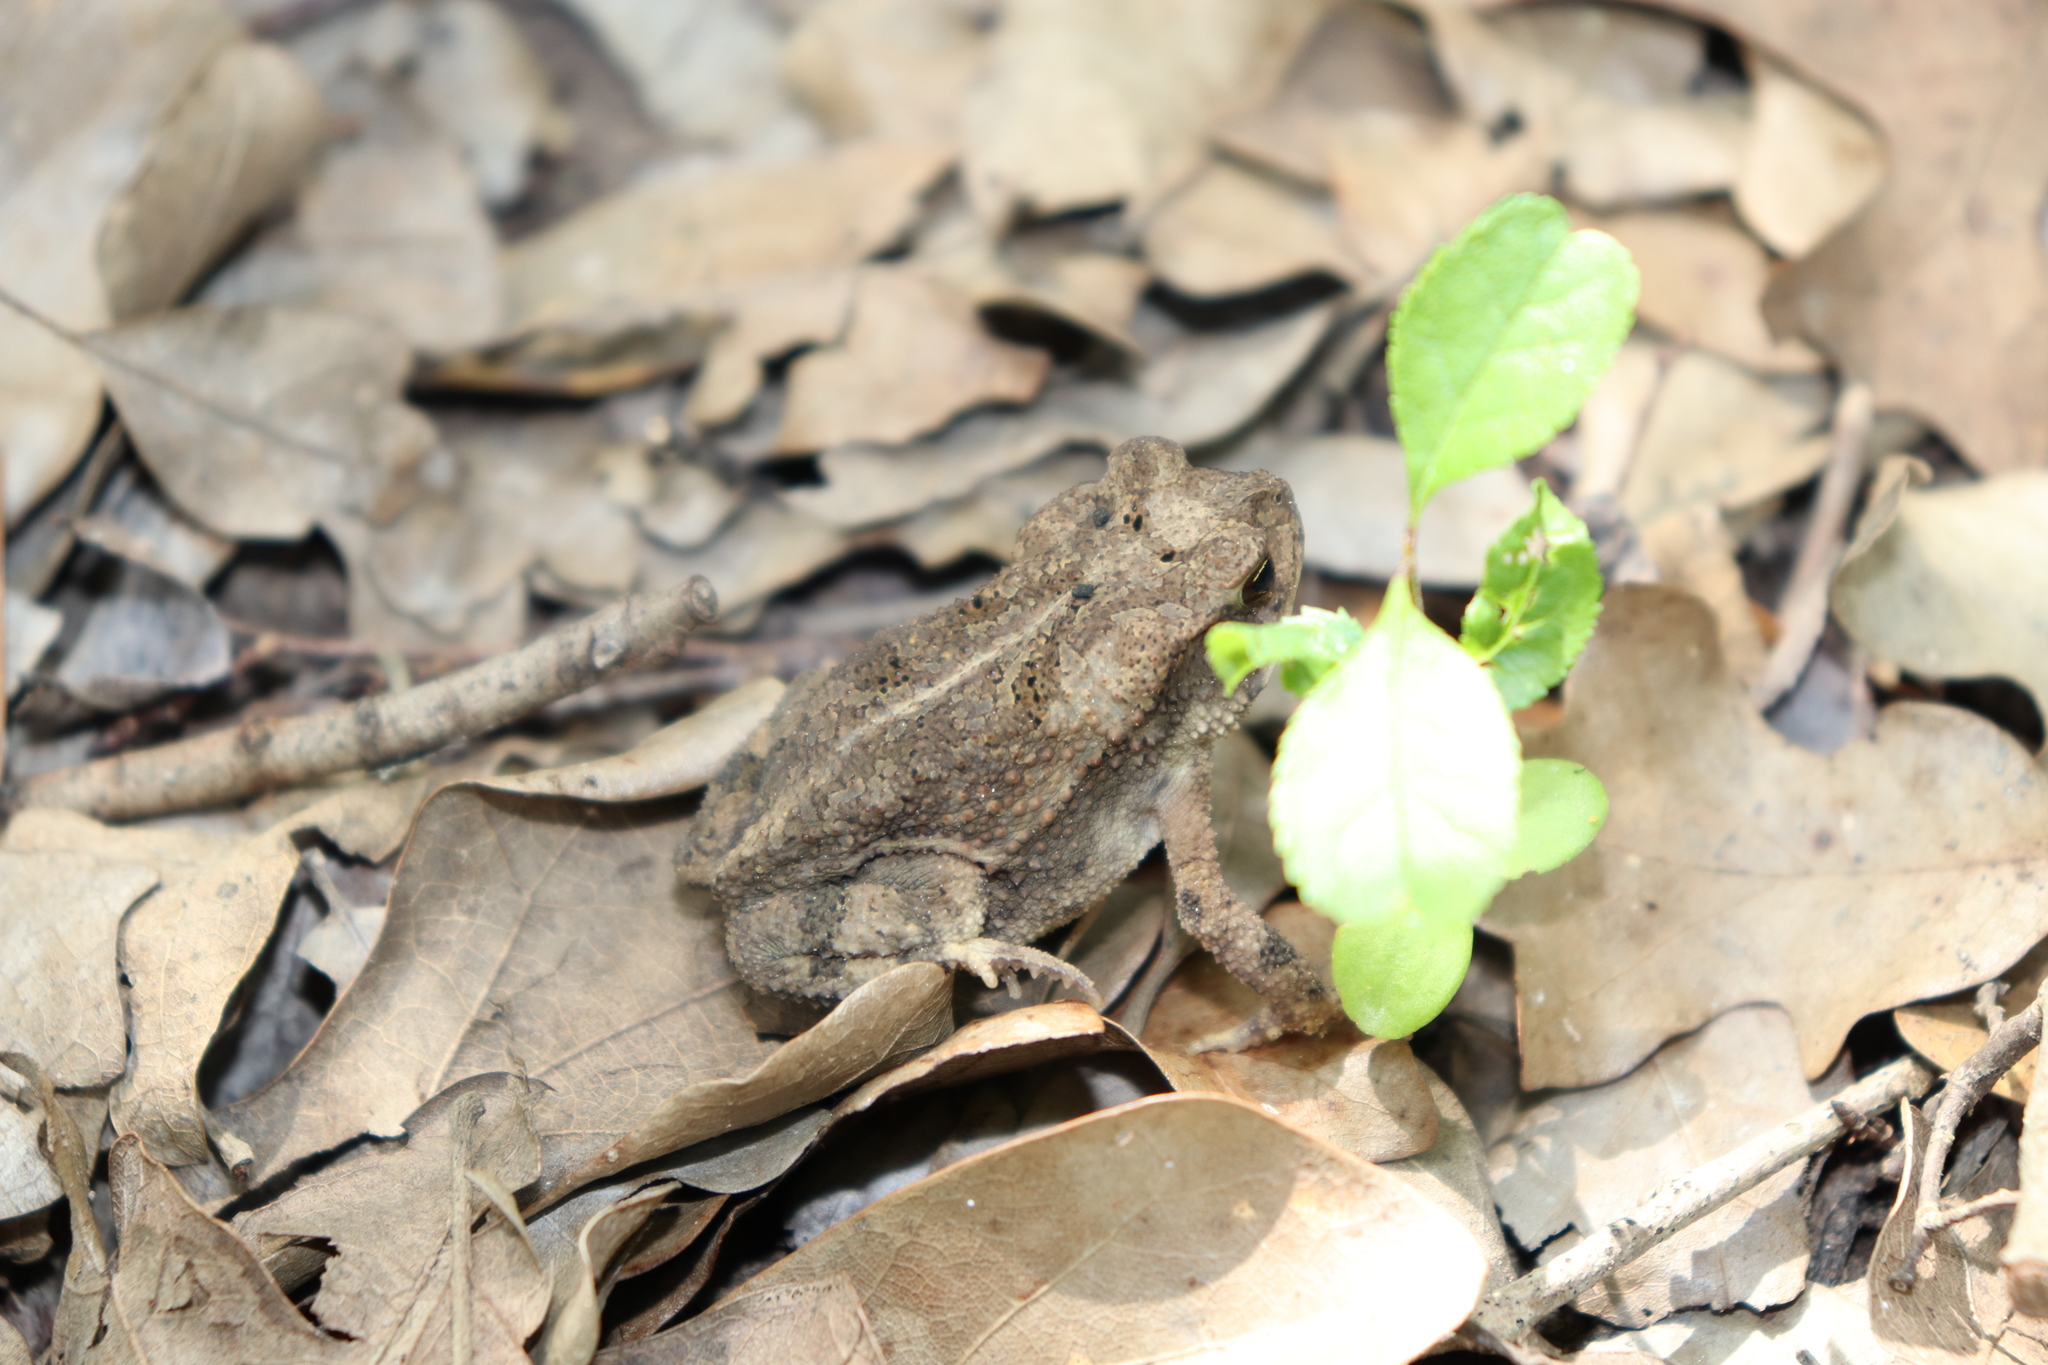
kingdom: Animalia
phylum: Chordata
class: Amphibia
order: Anura
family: Bufonidae
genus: Incilius
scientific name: Incilius nebulifer
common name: Gulf coast toad
